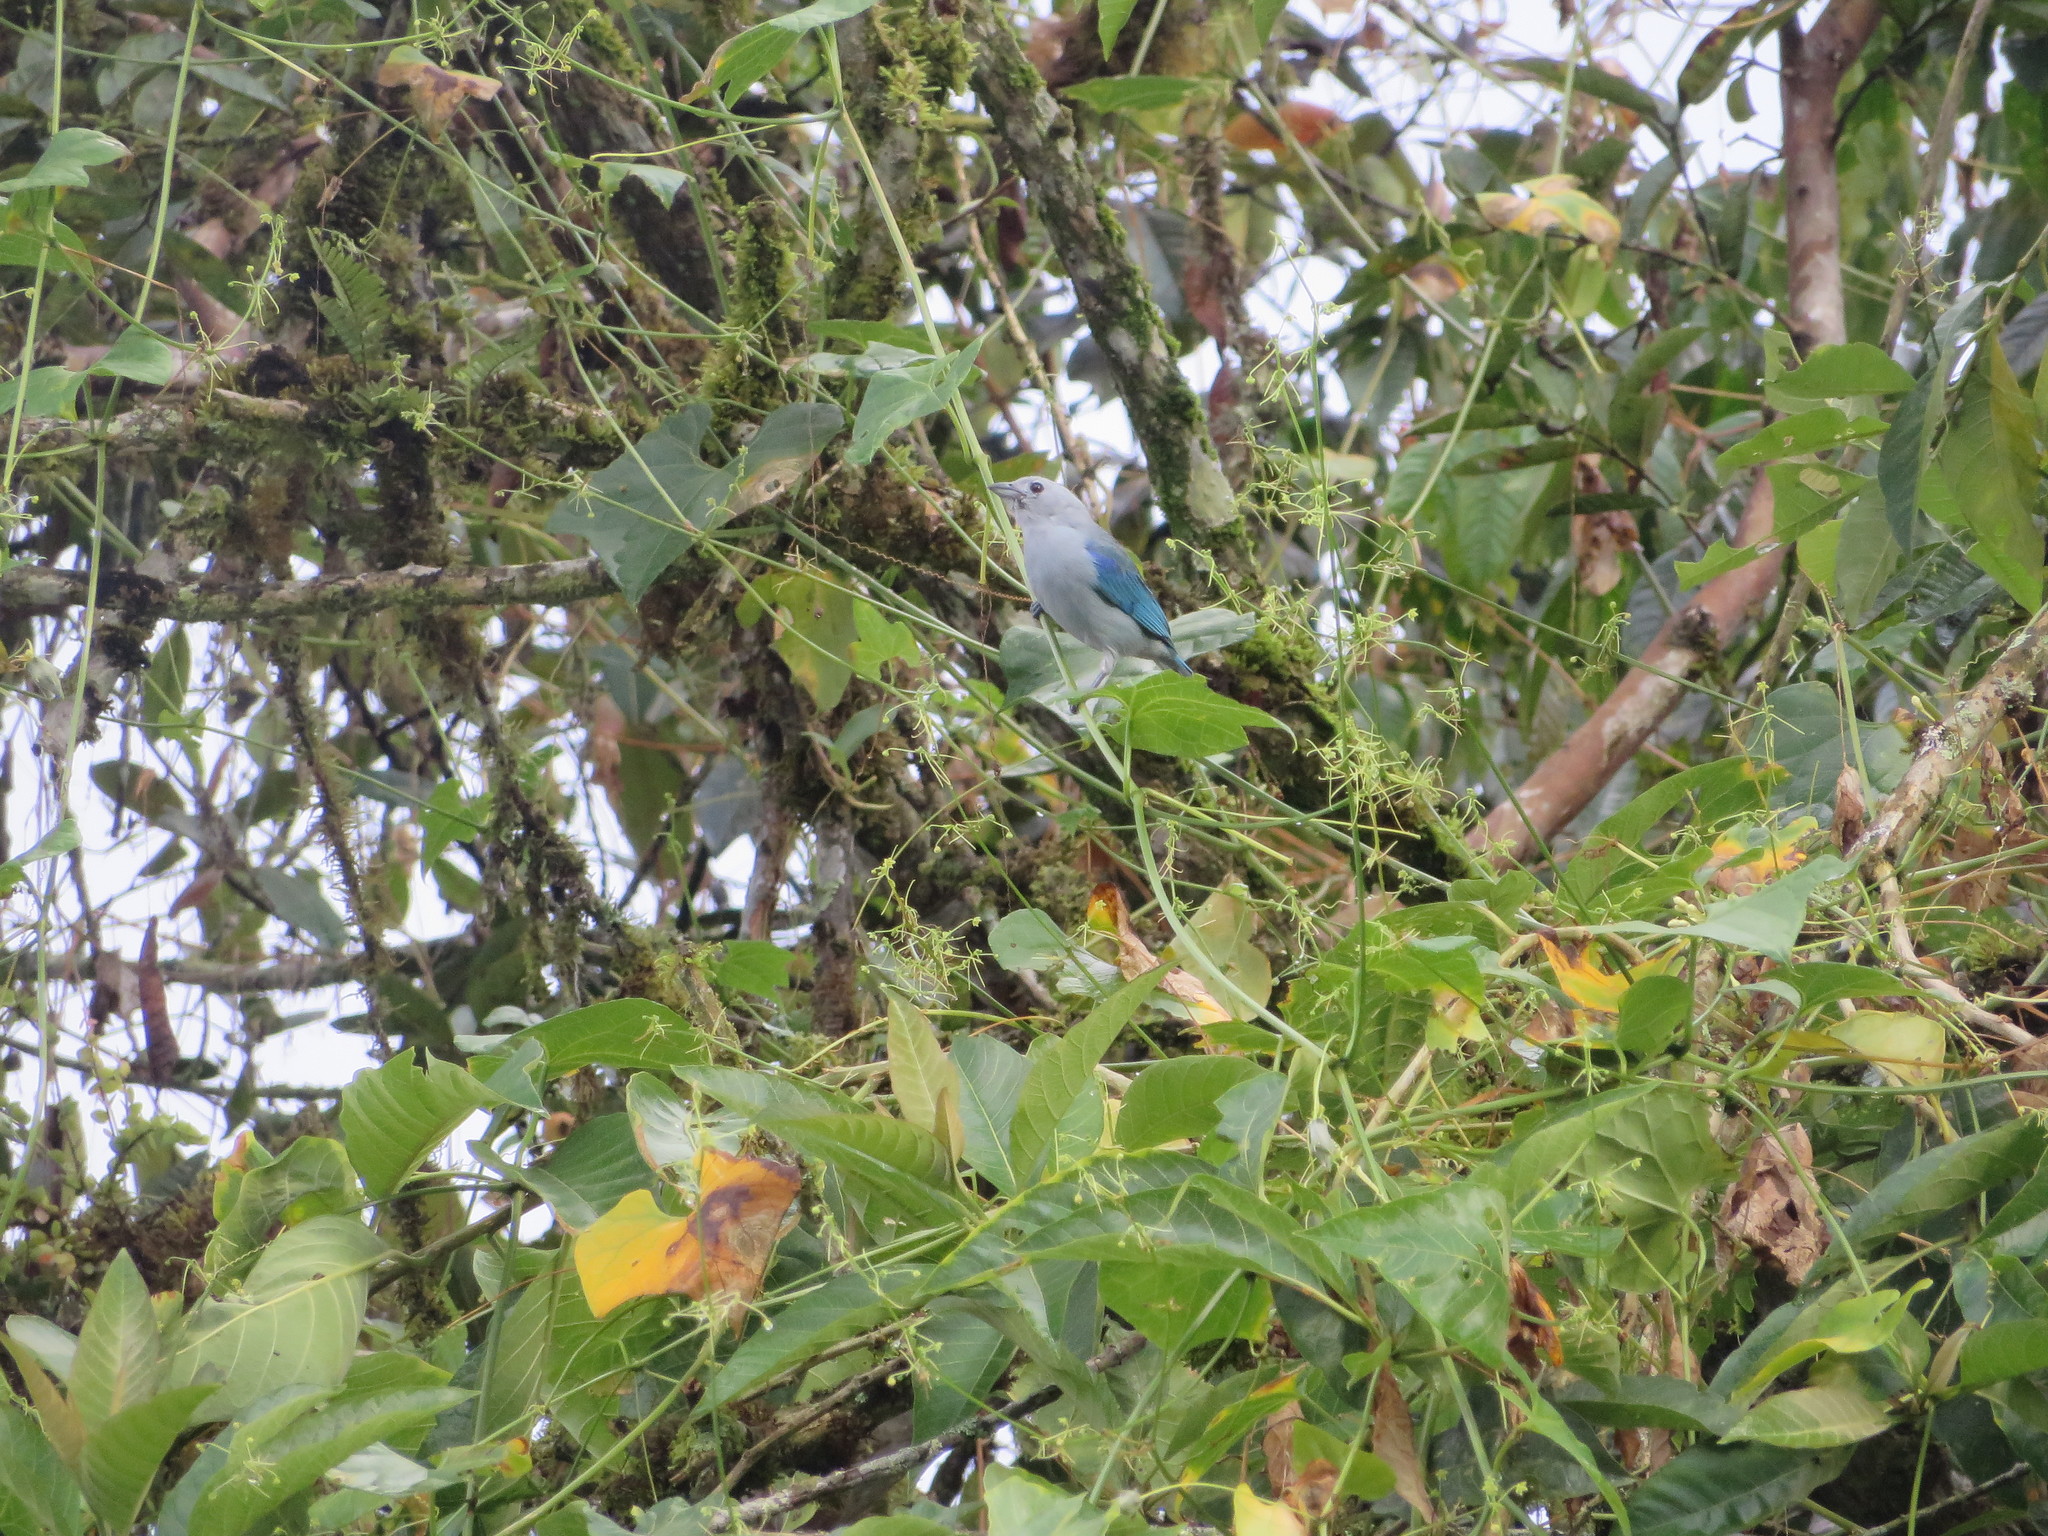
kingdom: Animalia
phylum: Chordata
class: Aves
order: Passeriformes
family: Thraupidae
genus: Thraupis
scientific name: Thraupis episcopus
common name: Blue-grey tanager
